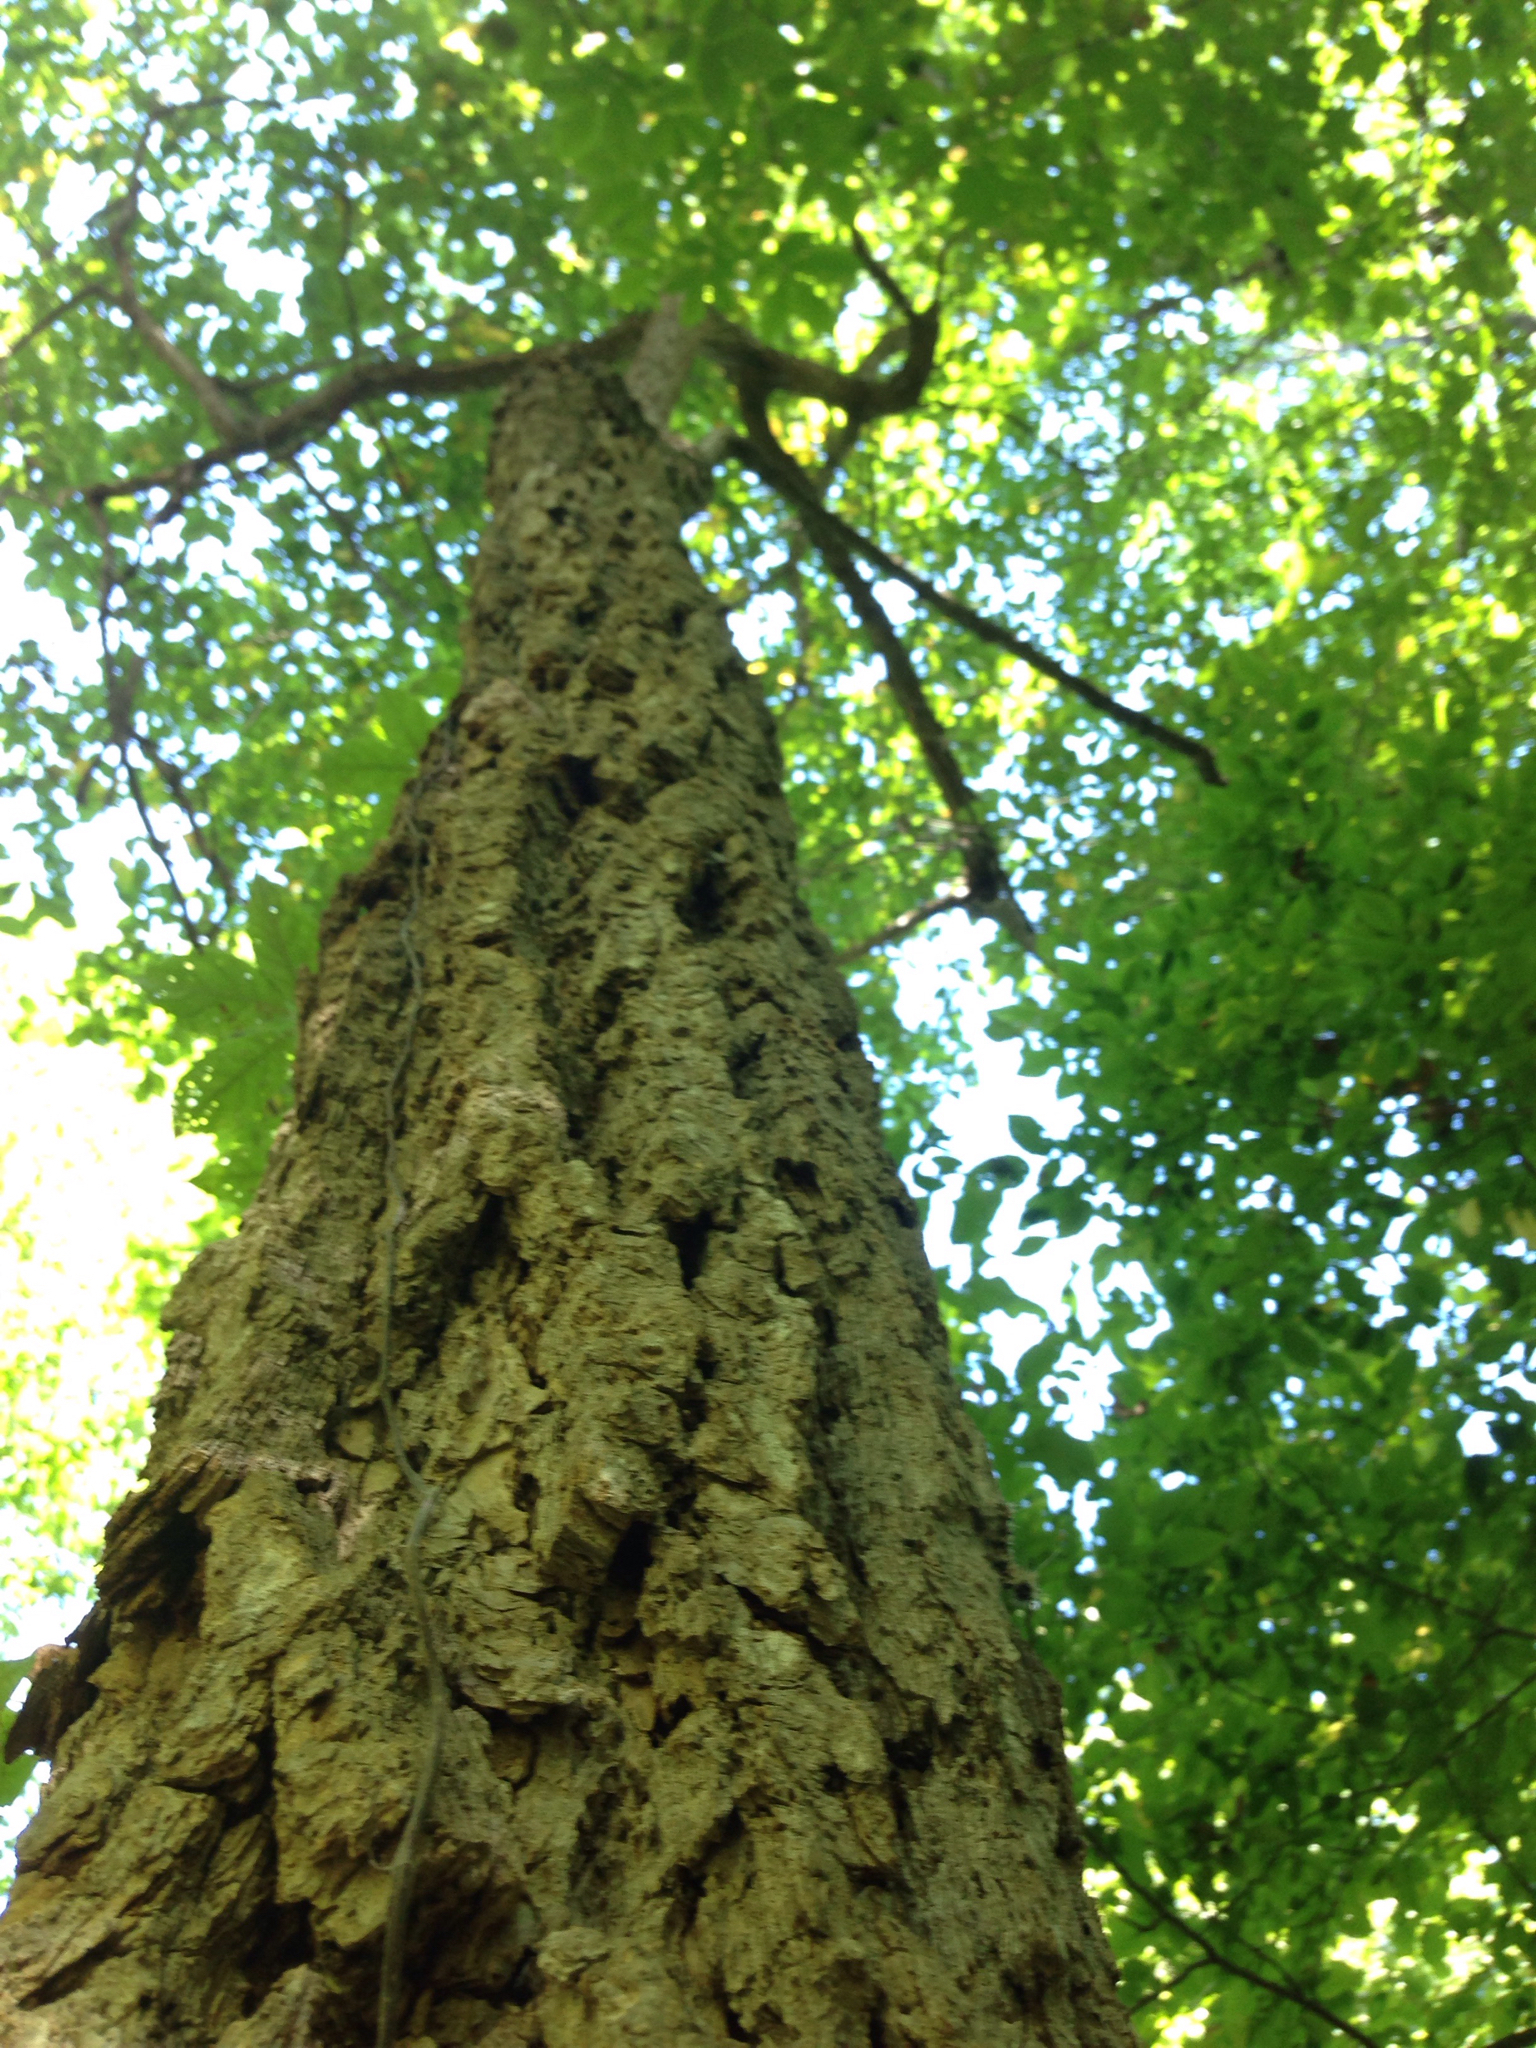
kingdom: Plantae
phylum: Tracheophyta
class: Magnoliopsida
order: Rosales
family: Ulmaceae
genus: Ulmus
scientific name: Ulmus americana
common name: American elm
